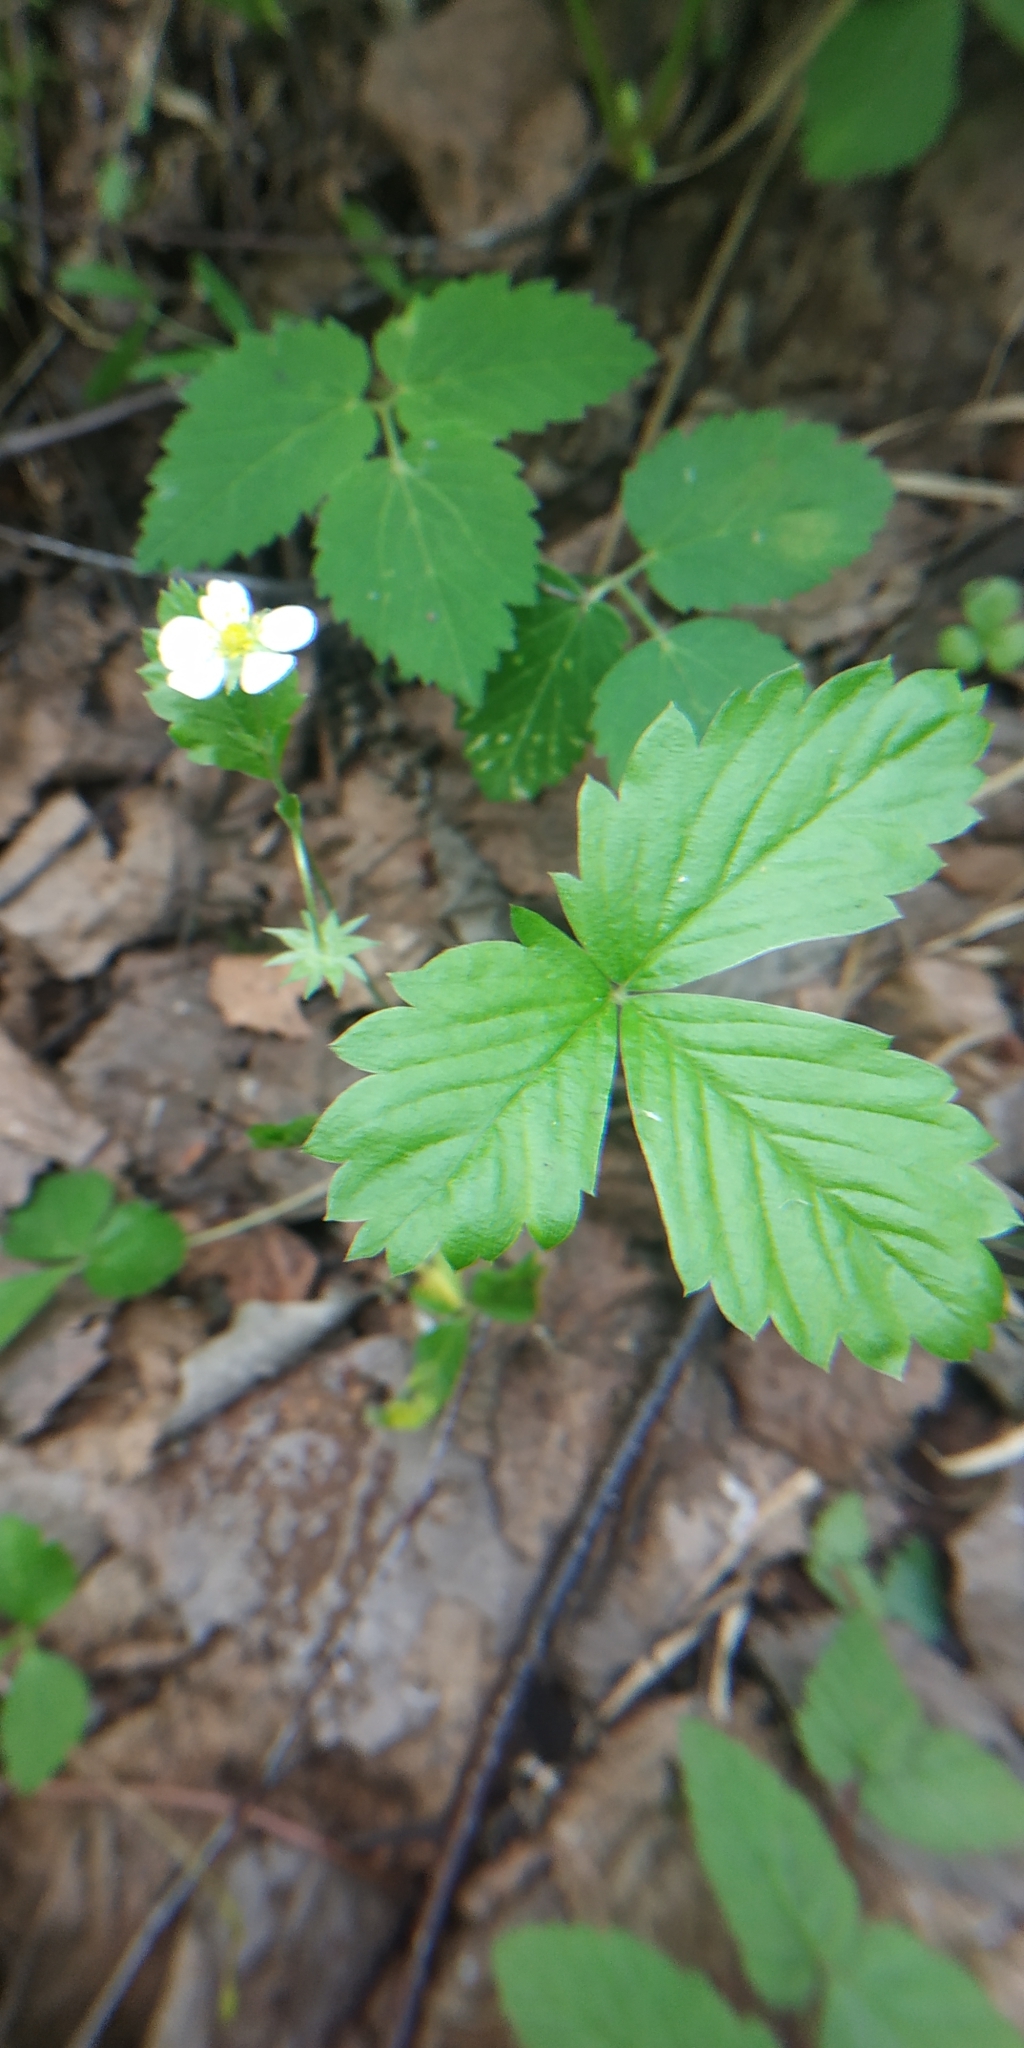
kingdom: Plantae
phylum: Tracheophyta
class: Magnoliopsida
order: Rosales
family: Rosaceae
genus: Fragaria
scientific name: Fragaria vesca
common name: Wild strawberry
